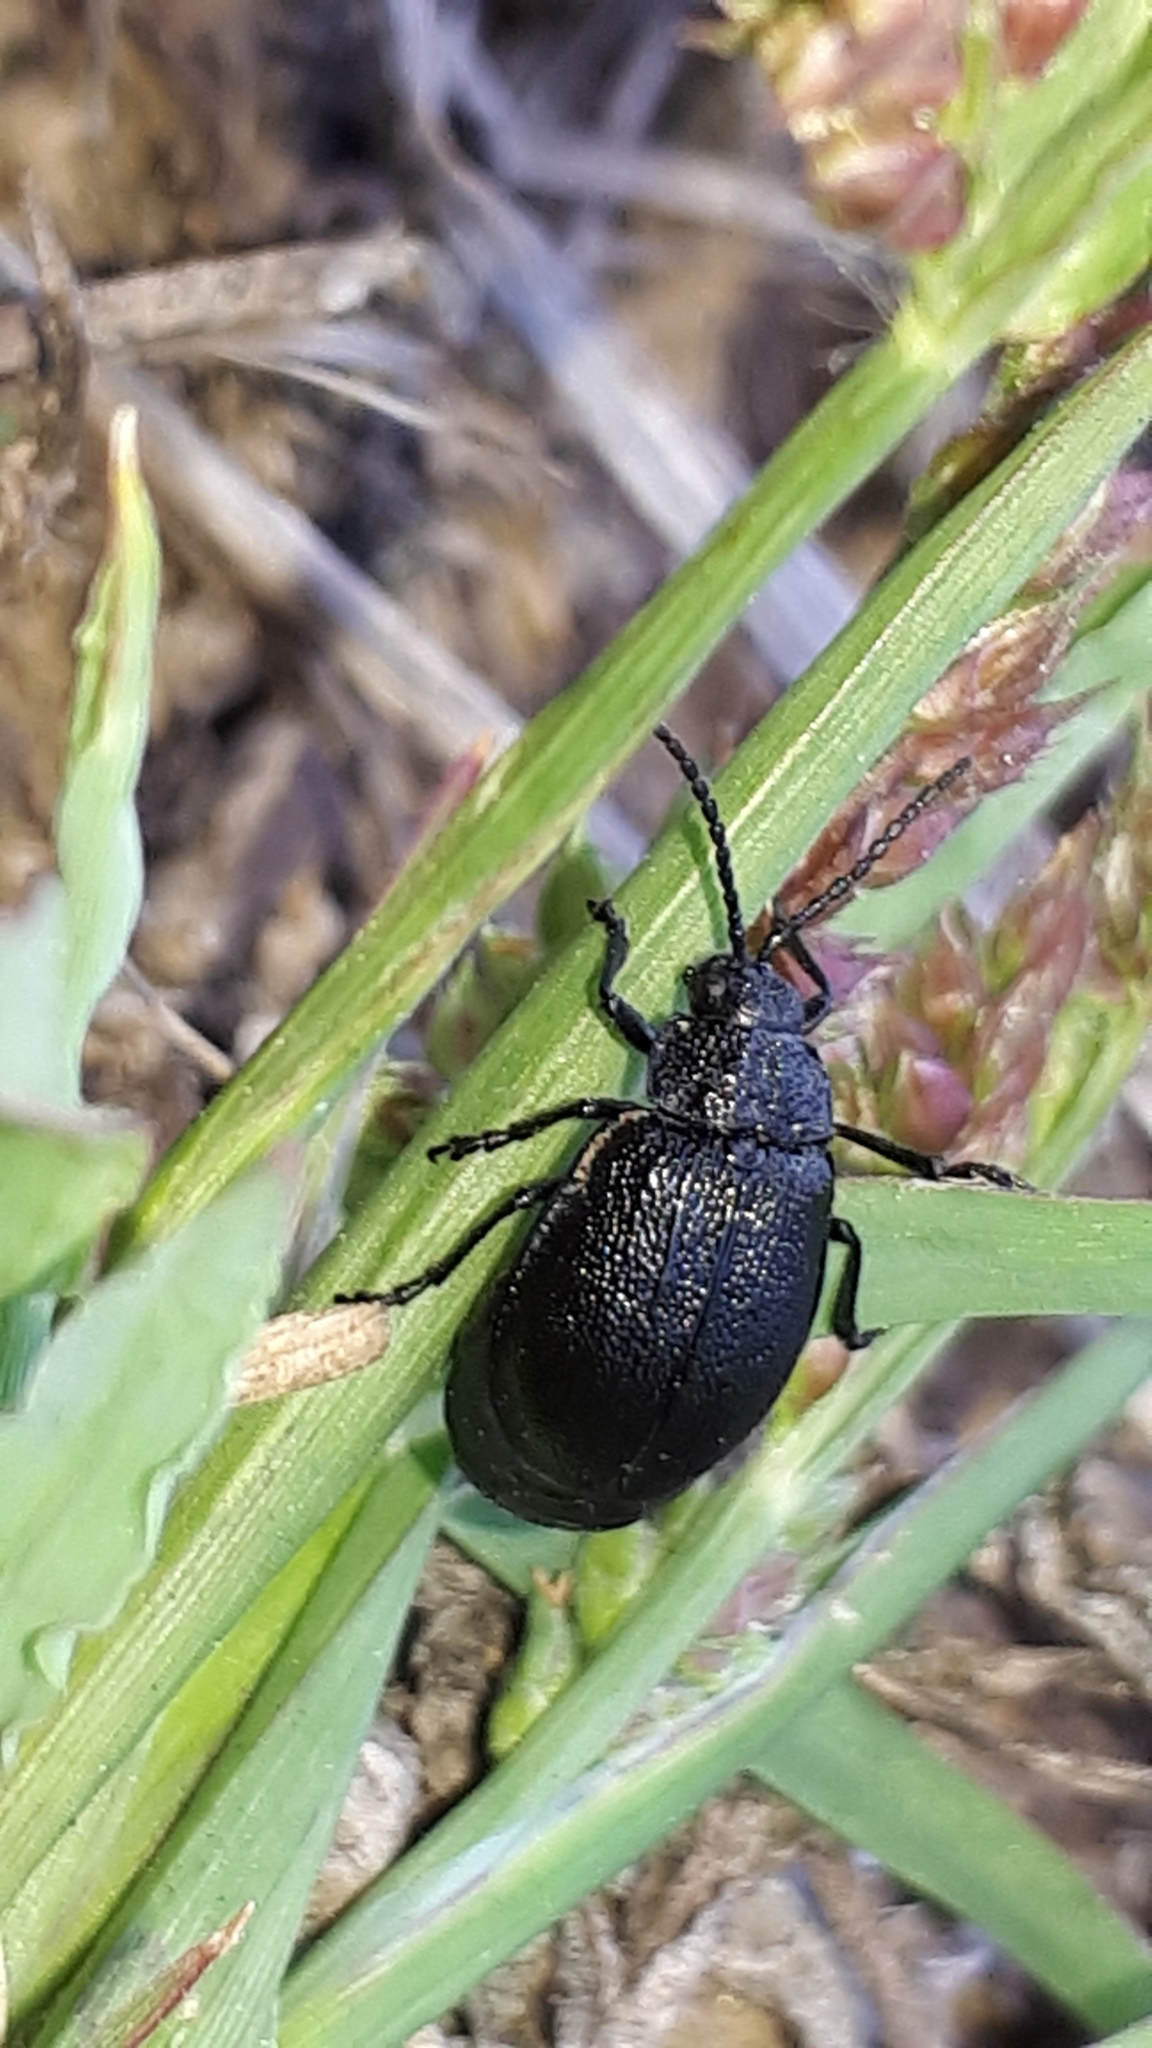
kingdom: Animalia
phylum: Arthropoda
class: Insecta
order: Coleoptera
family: Chrysomelidae
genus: Galeruca
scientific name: Galeruca tanaceti
